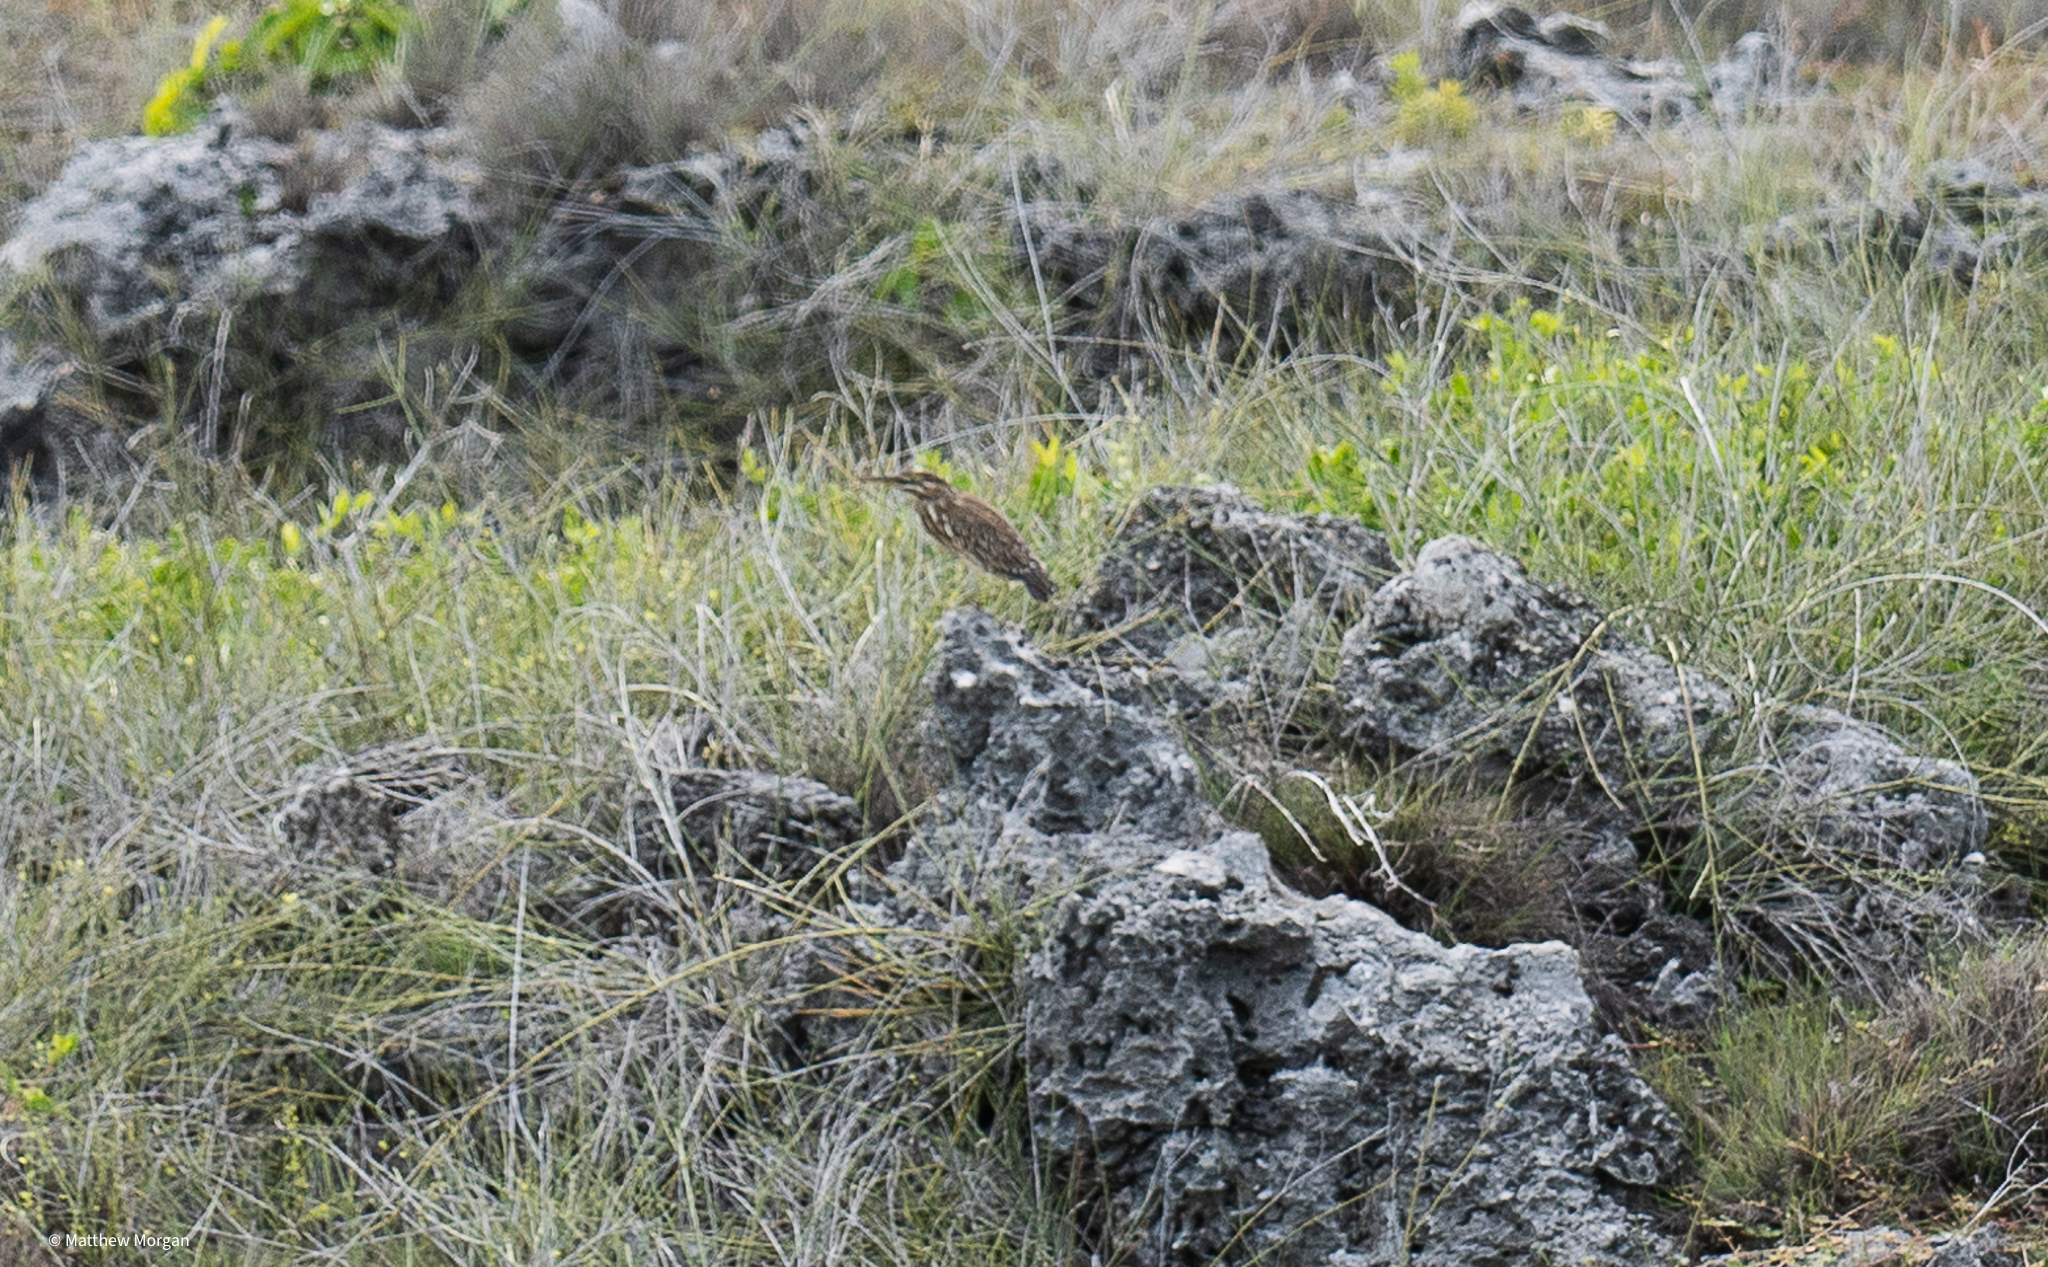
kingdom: Animalia
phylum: Chordata
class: Aves
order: Pelecaniformes
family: Ardeidae
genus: Butorides
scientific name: Butorides striata
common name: Striated heron
